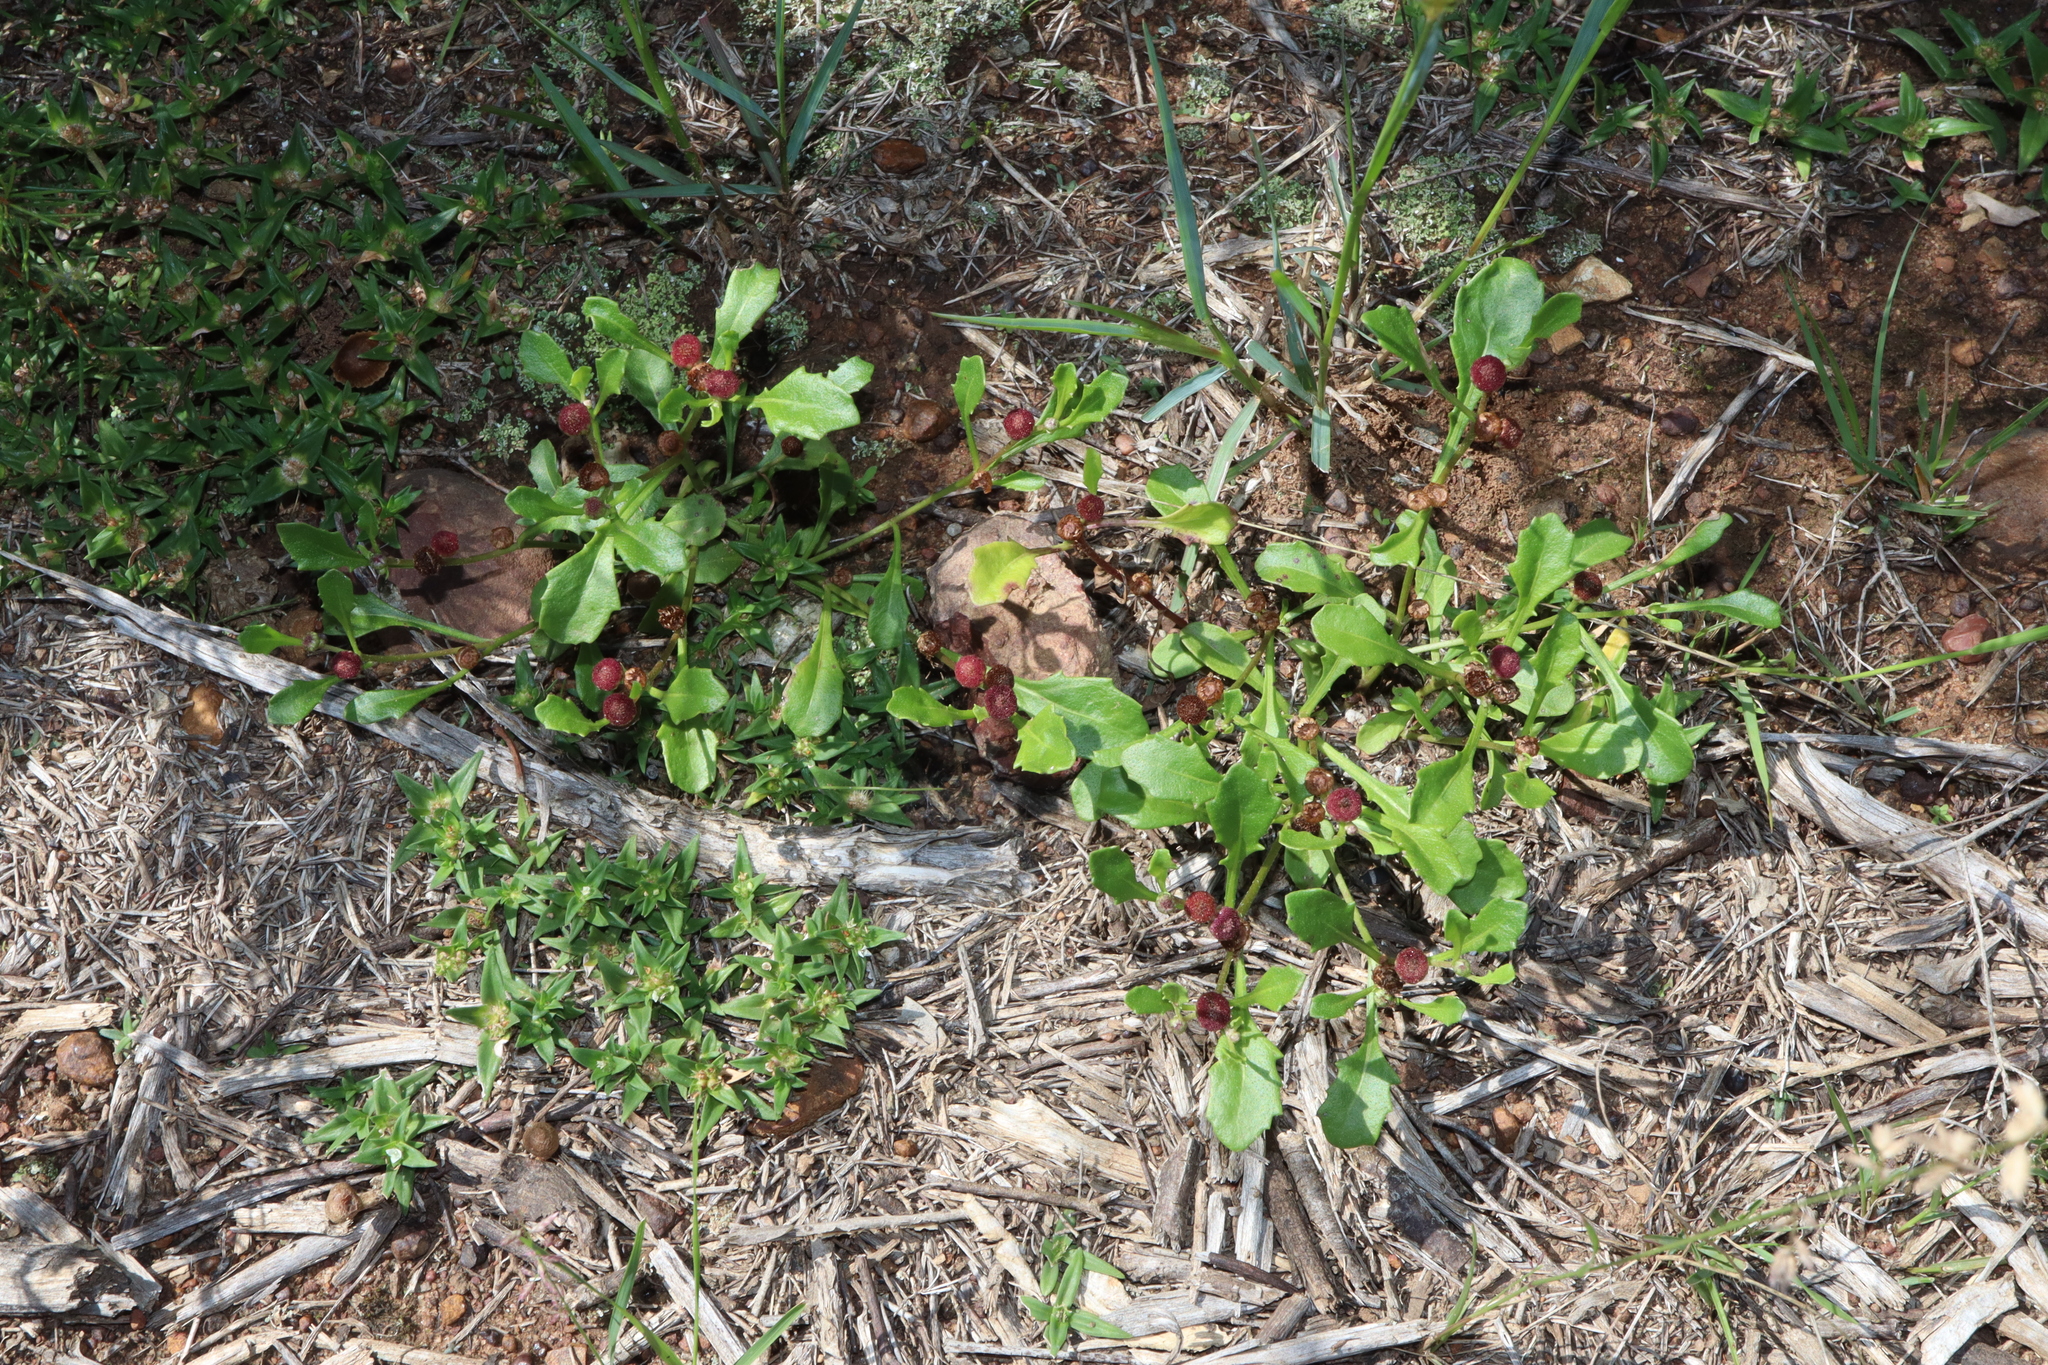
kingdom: Plantae
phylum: Tracheophyta
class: Magnoliopsida
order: Asterales
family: Asteraceae
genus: Sphaeromorphaea
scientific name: Sphaeromorphaea australis
